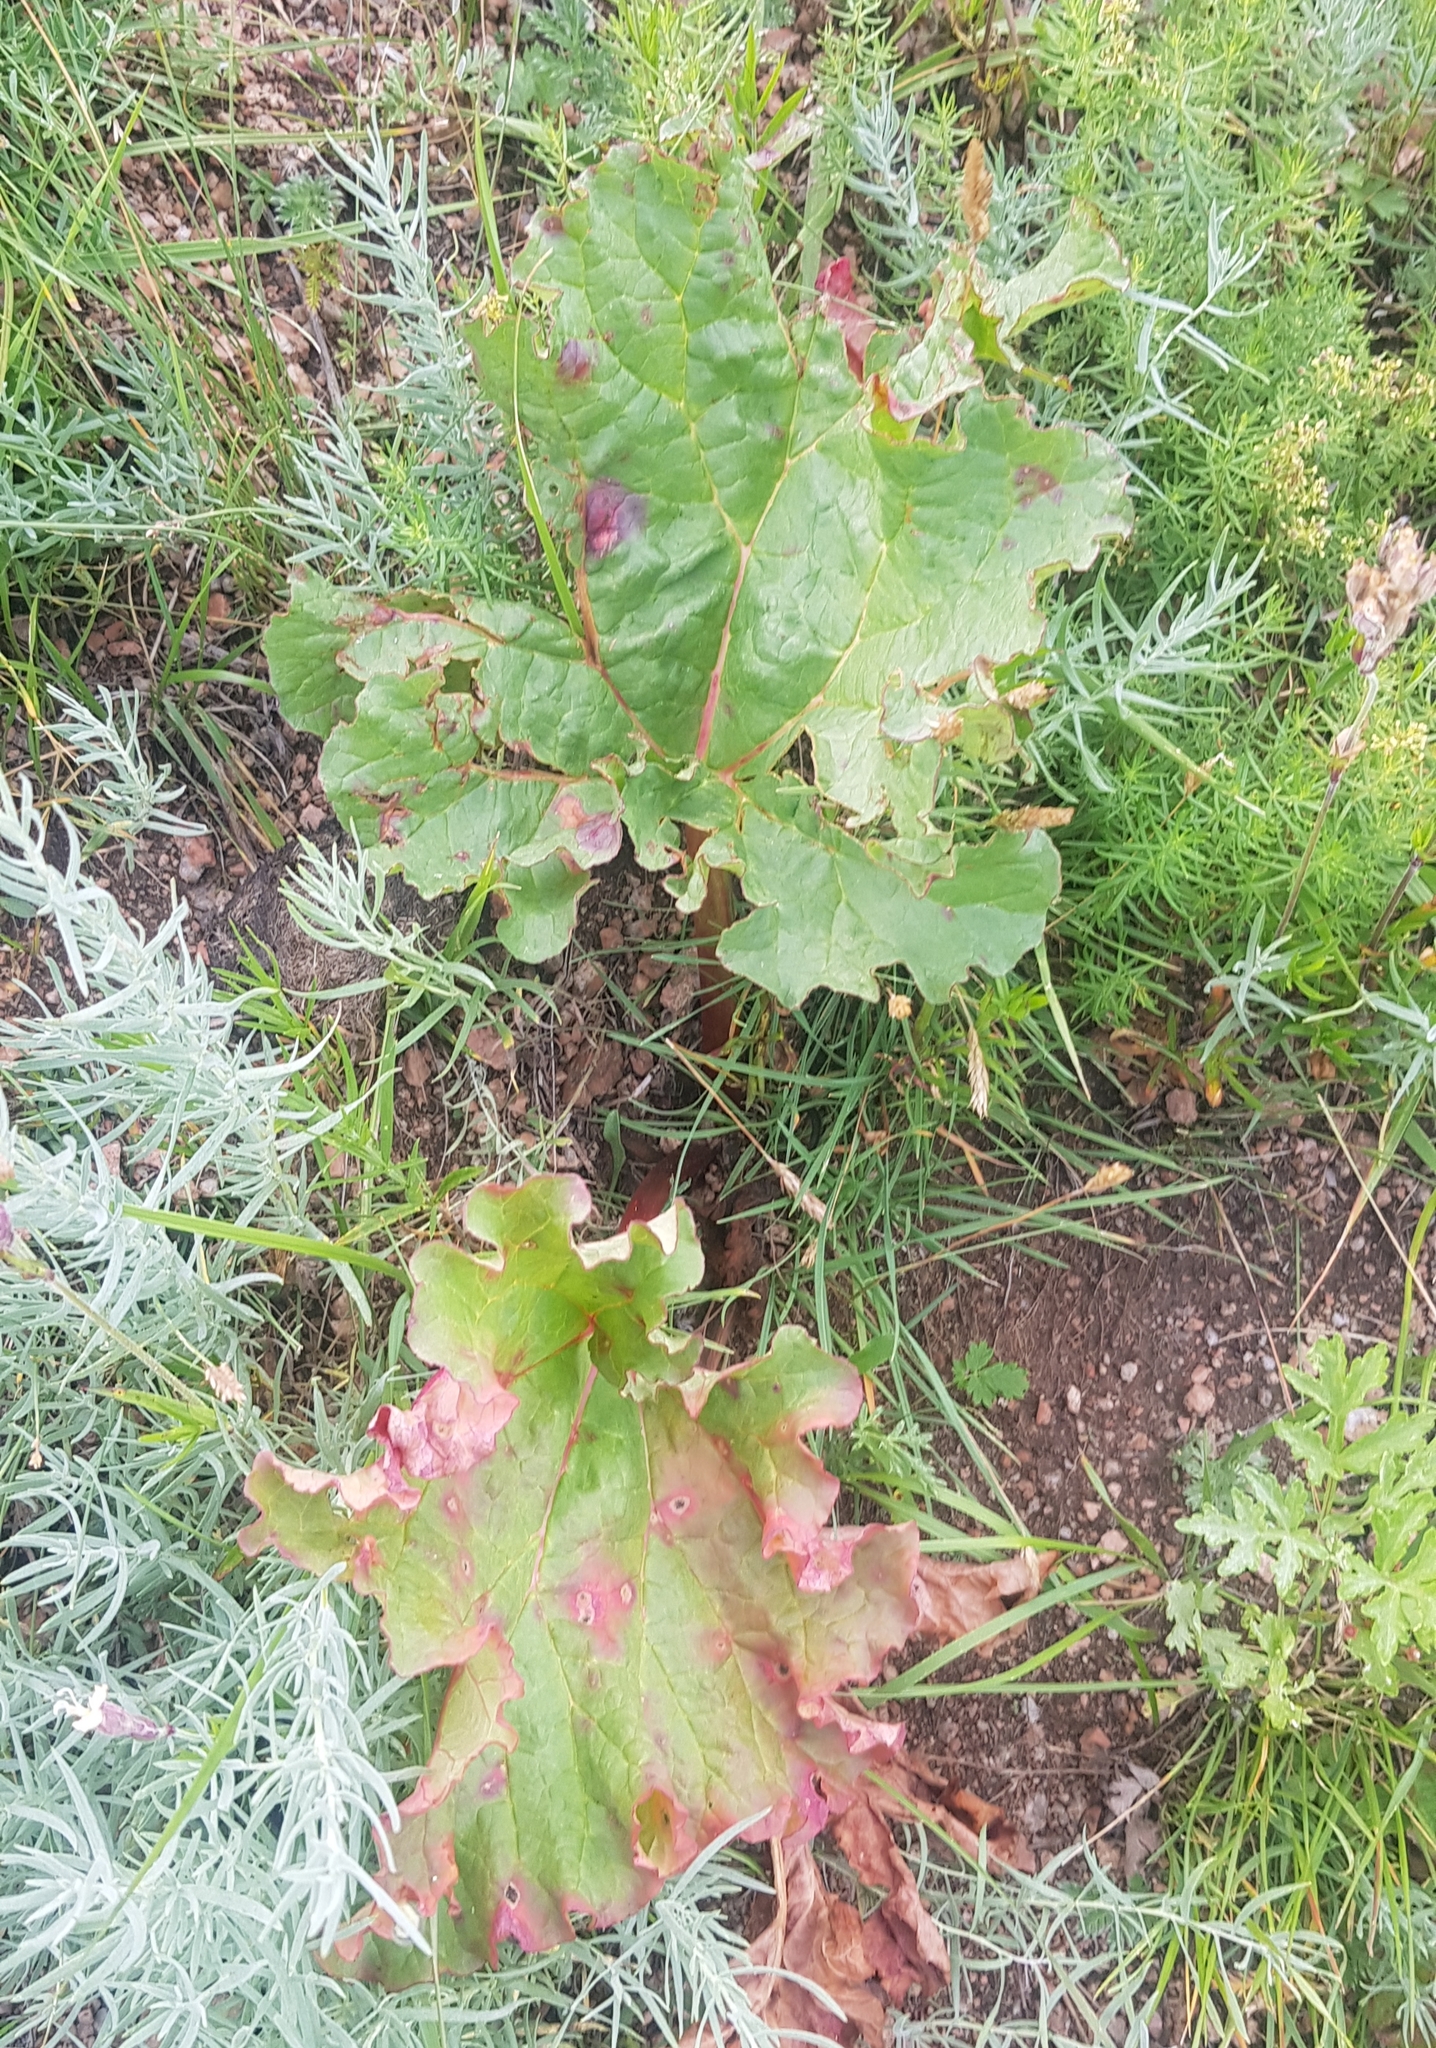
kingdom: Plantae
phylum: Tracheophyta
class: Magnoliopsida
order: Caryophyllales
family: Polygonaceae
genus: Rheum
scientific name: Rheum rhabarbarum
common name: Garden rhubarb
